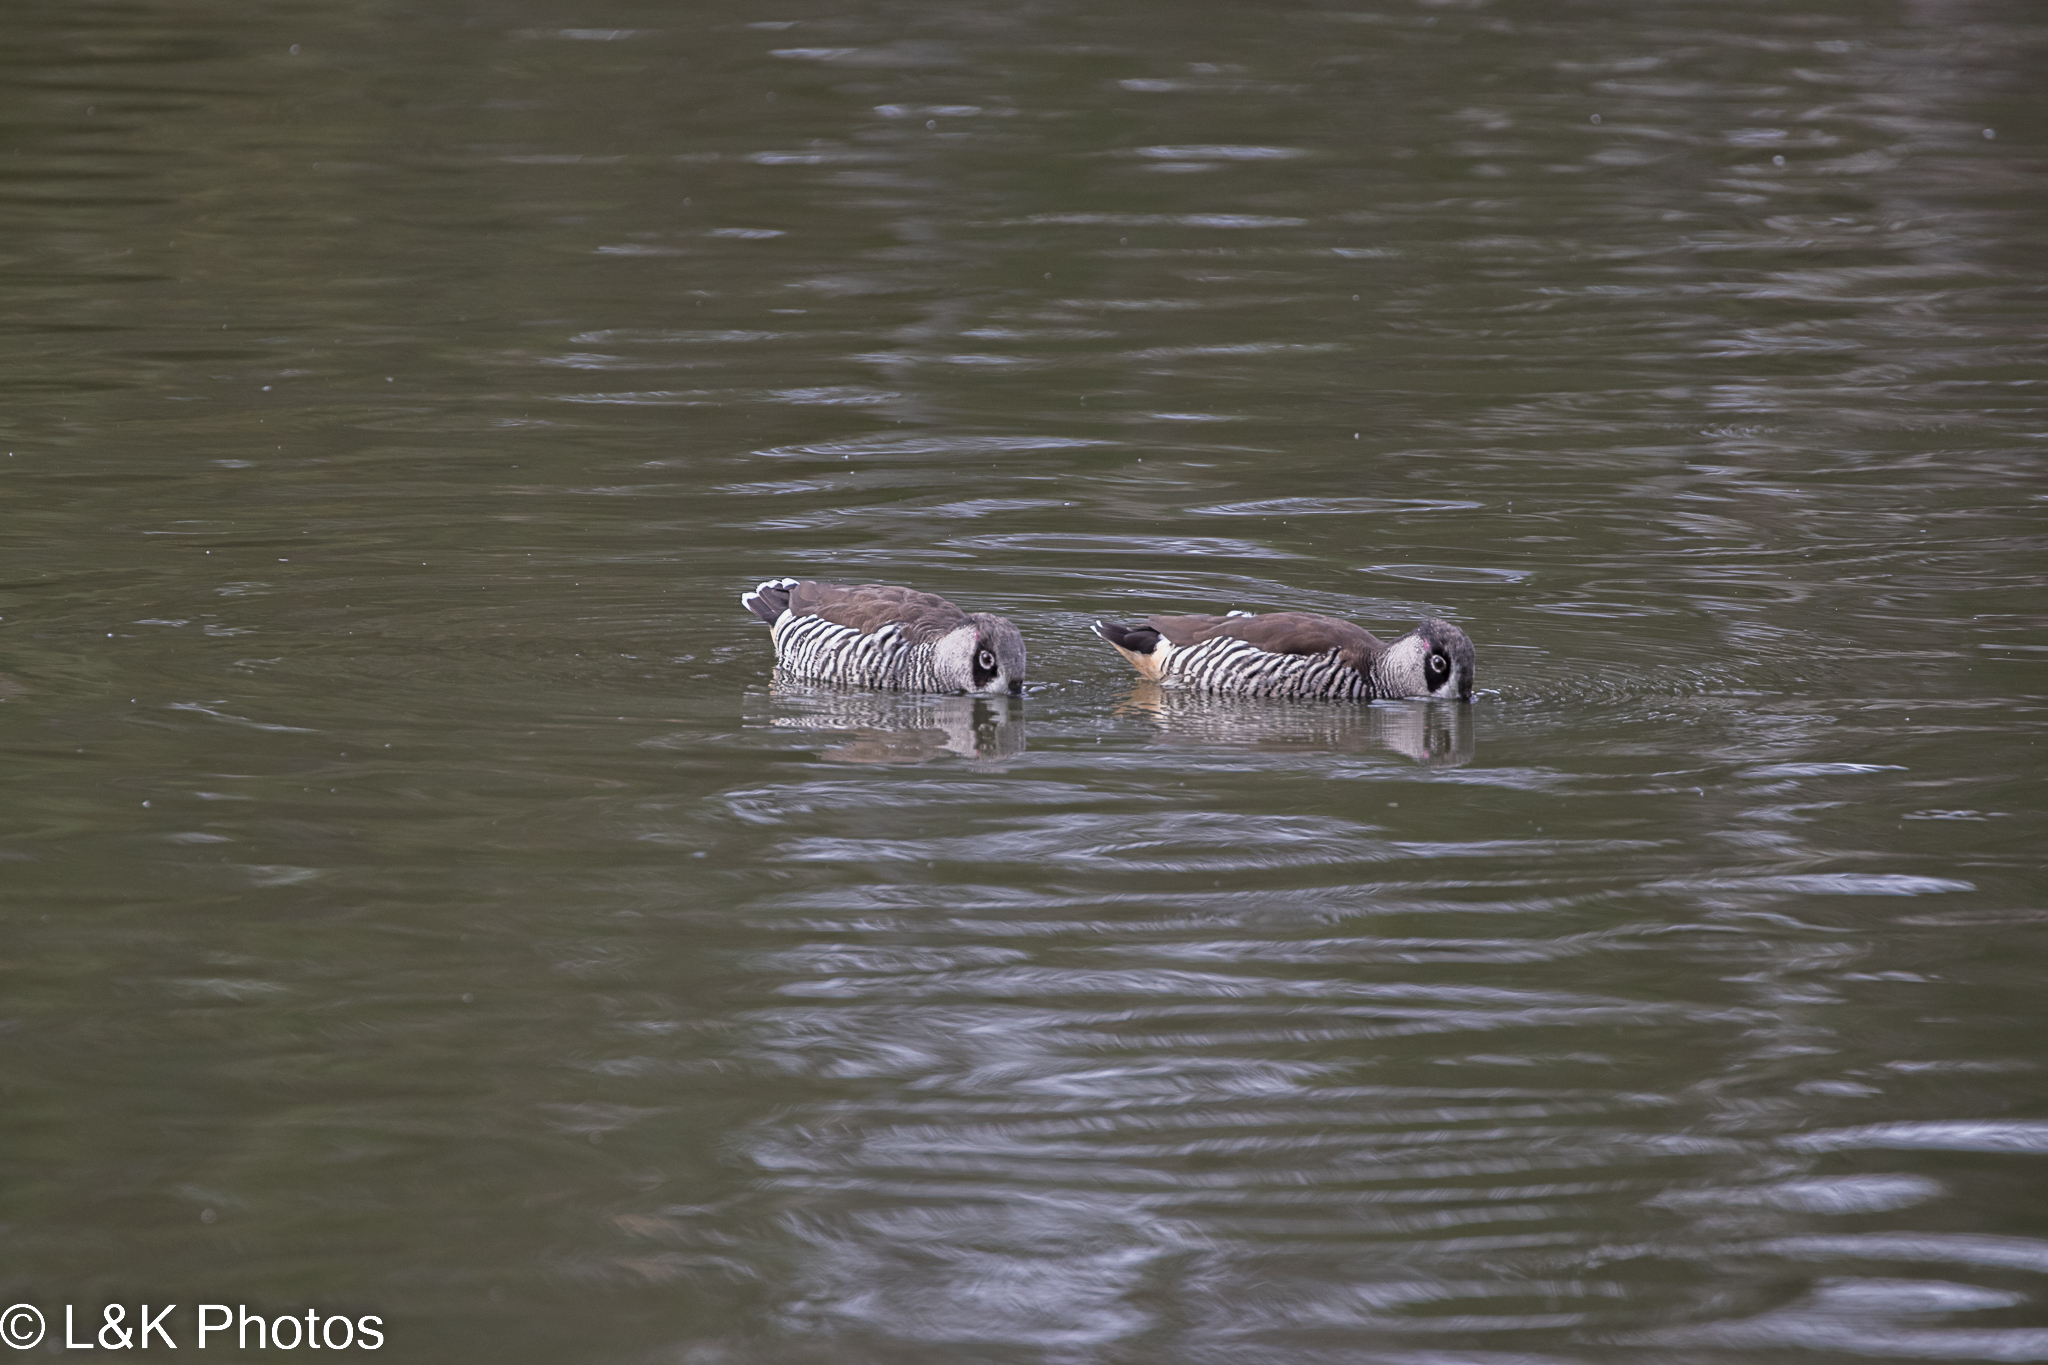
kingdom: Animalia
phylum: Chordata
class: Aves
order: Anseriformes
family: Anatidae
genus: Malacorhynchus
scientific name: Malacorhynchus membranaceus
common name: Pink-eared duck
